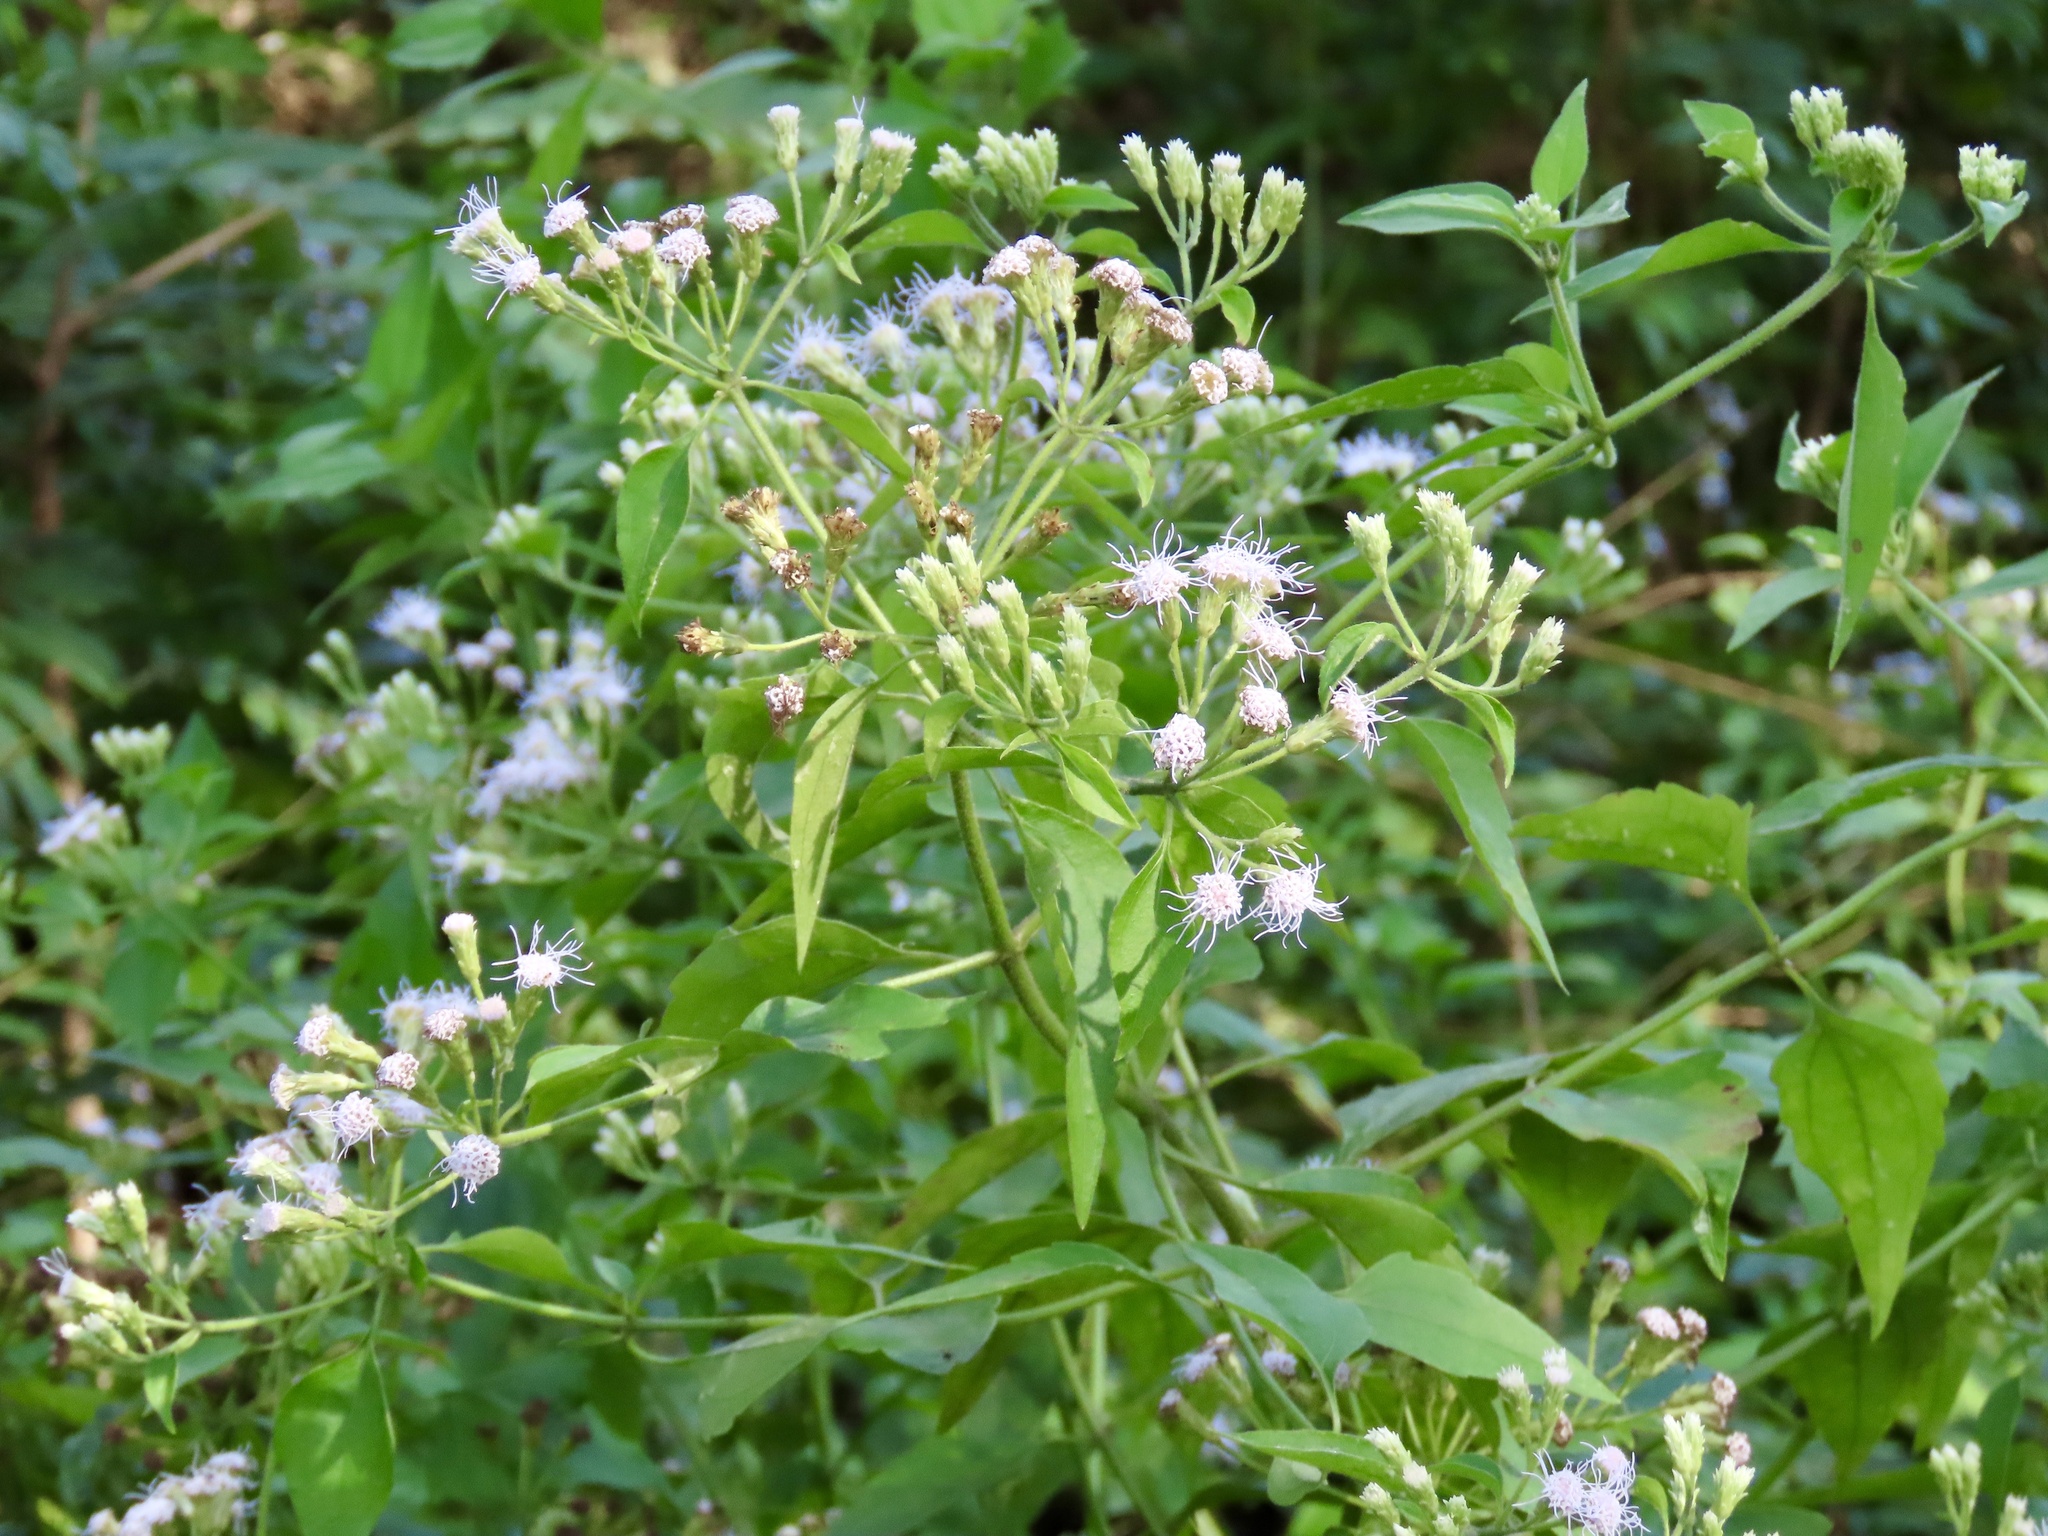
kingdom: Plantae
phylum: Tracheophyta
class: Magnoliopsida
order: Asterales
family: Asteraceae
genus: Chromolaena
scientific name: Chromolaena odorata
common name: Siamweed
